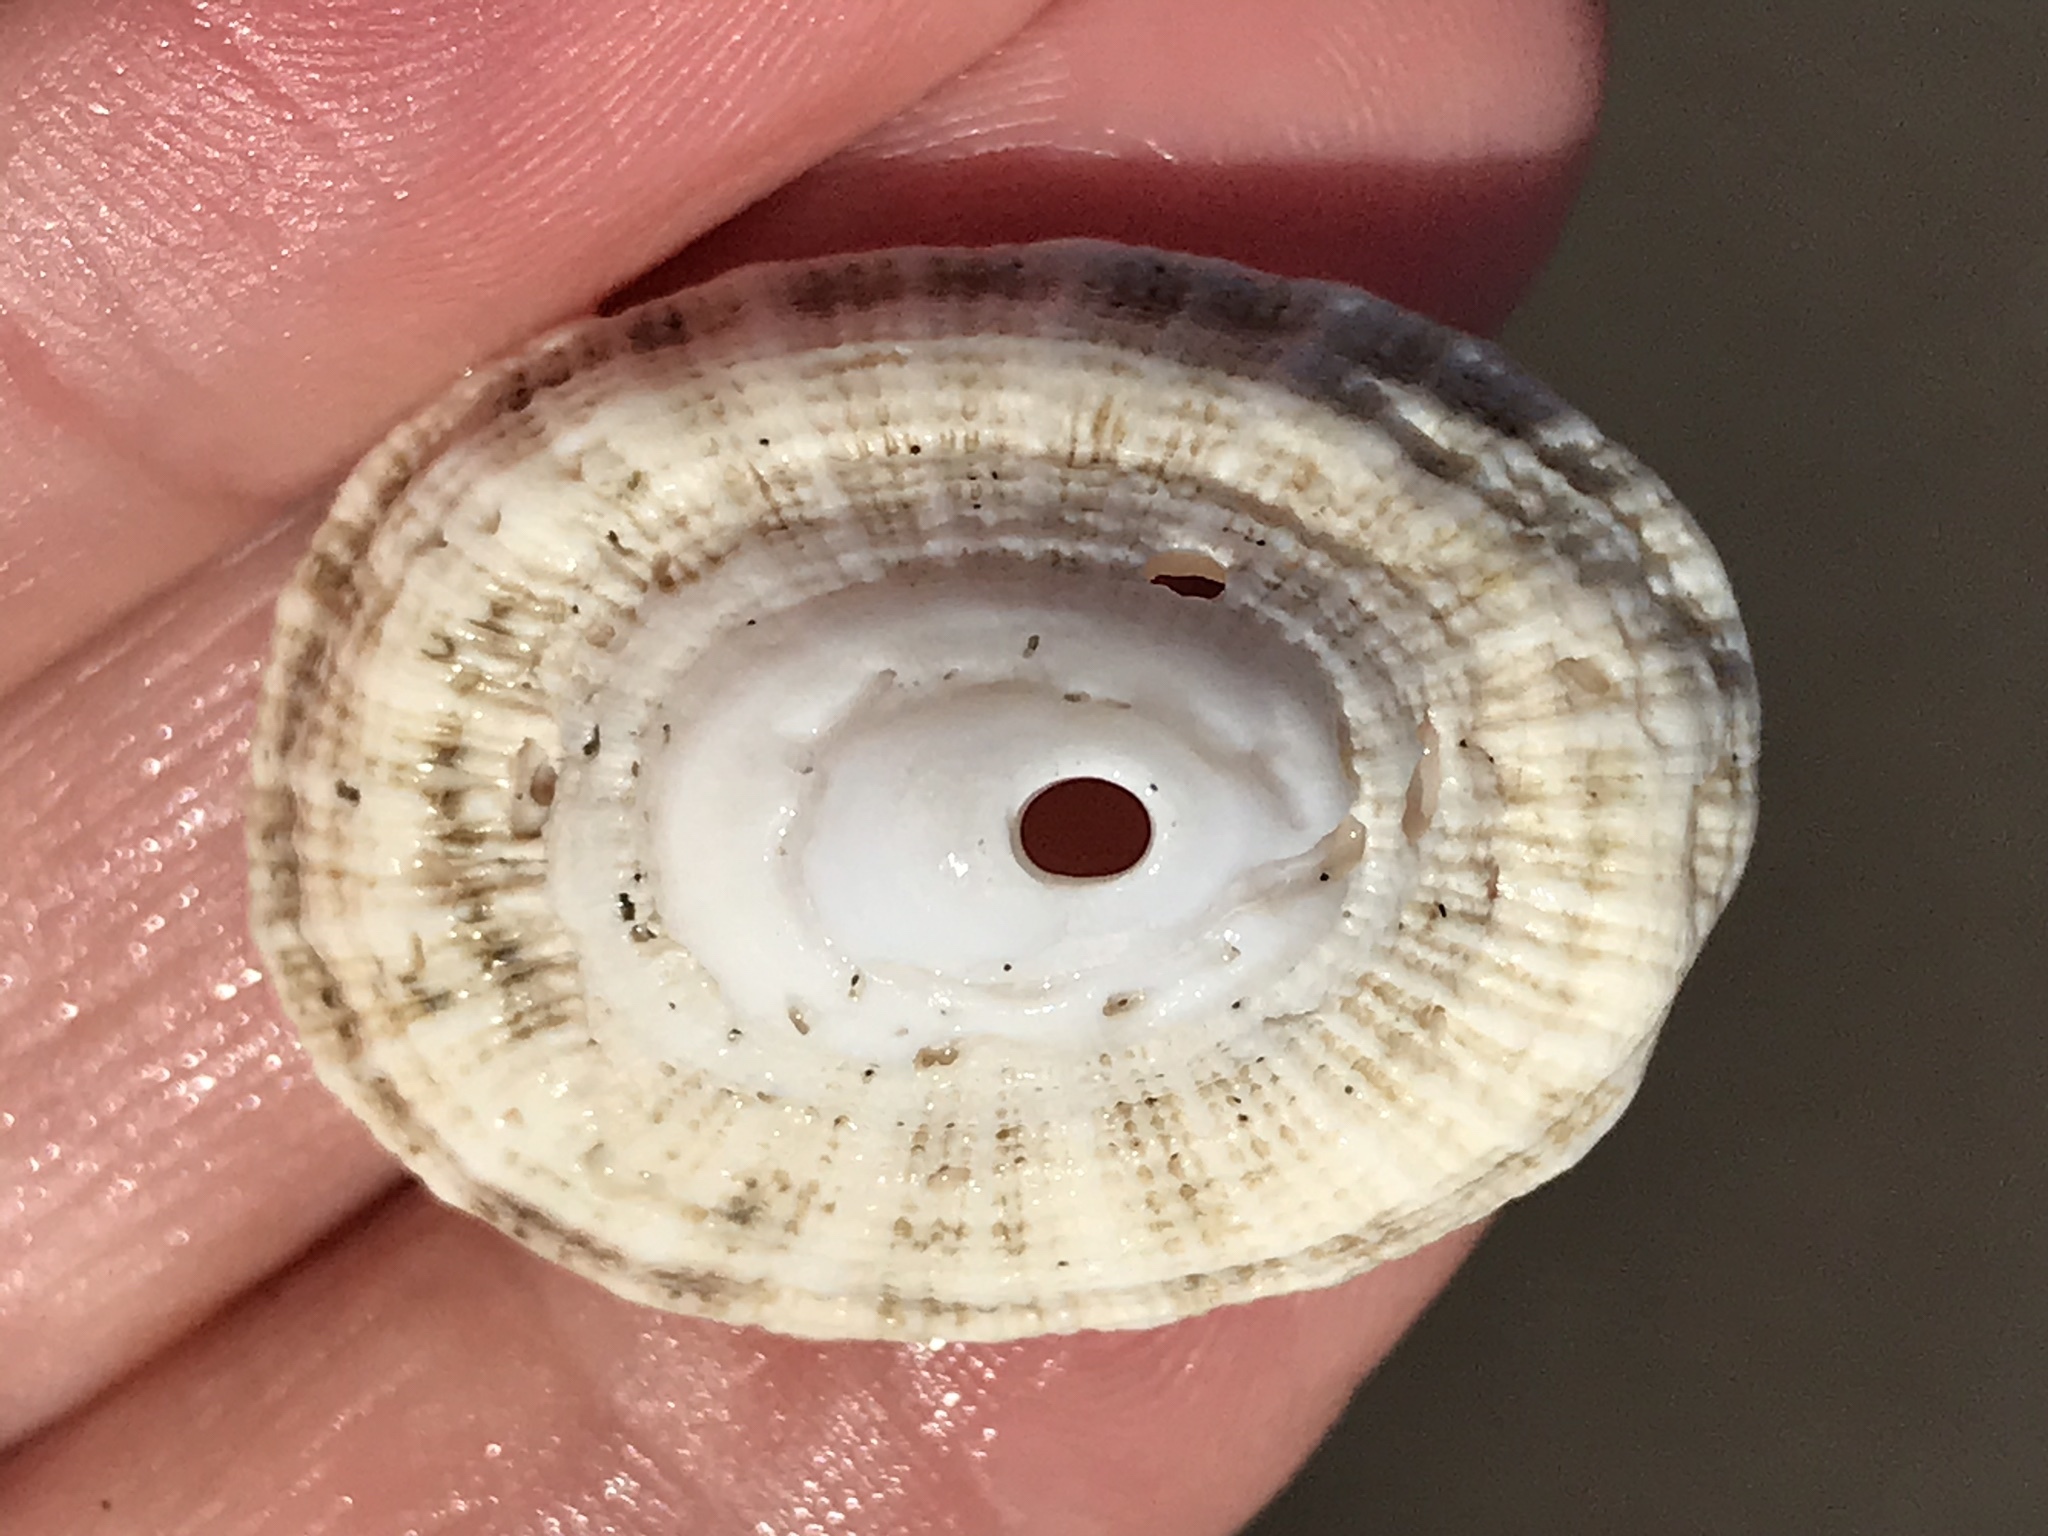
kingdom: Animalia
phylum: Mollusca
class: Gastropoda
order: Lepetellida
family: Fissurellidae
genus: Diodora
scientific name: Diodora aspera
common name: Rough keyhole limpet
